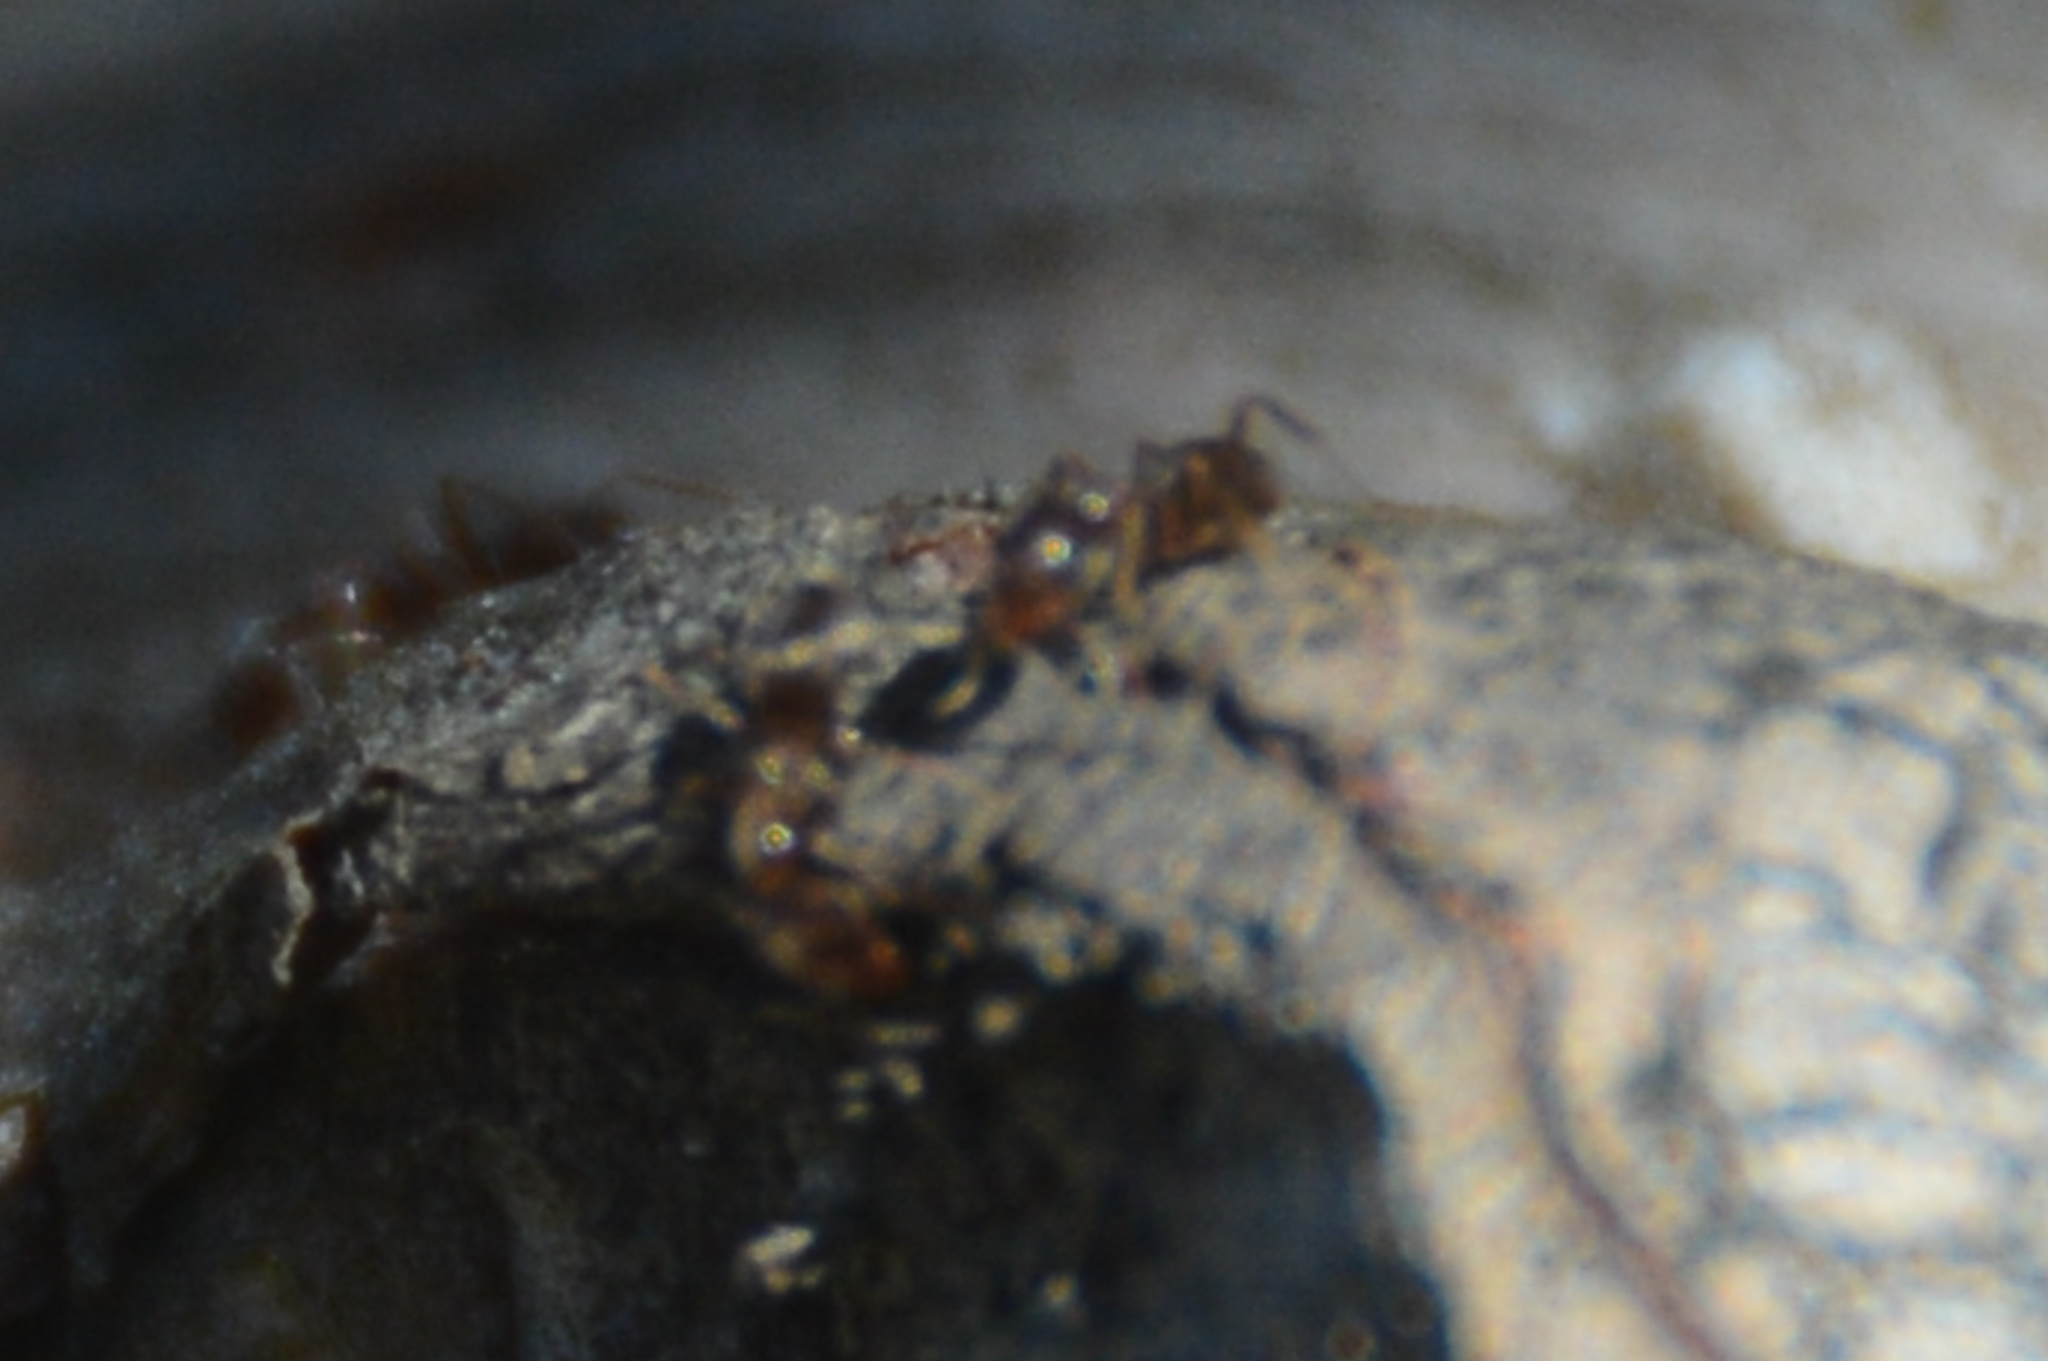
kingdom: Animalia
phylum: Arthropoda
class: Insecta
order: Hymenoptera
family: Formicidae
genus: Linepithema
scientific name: Linepithema humile
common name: Argentine ant
